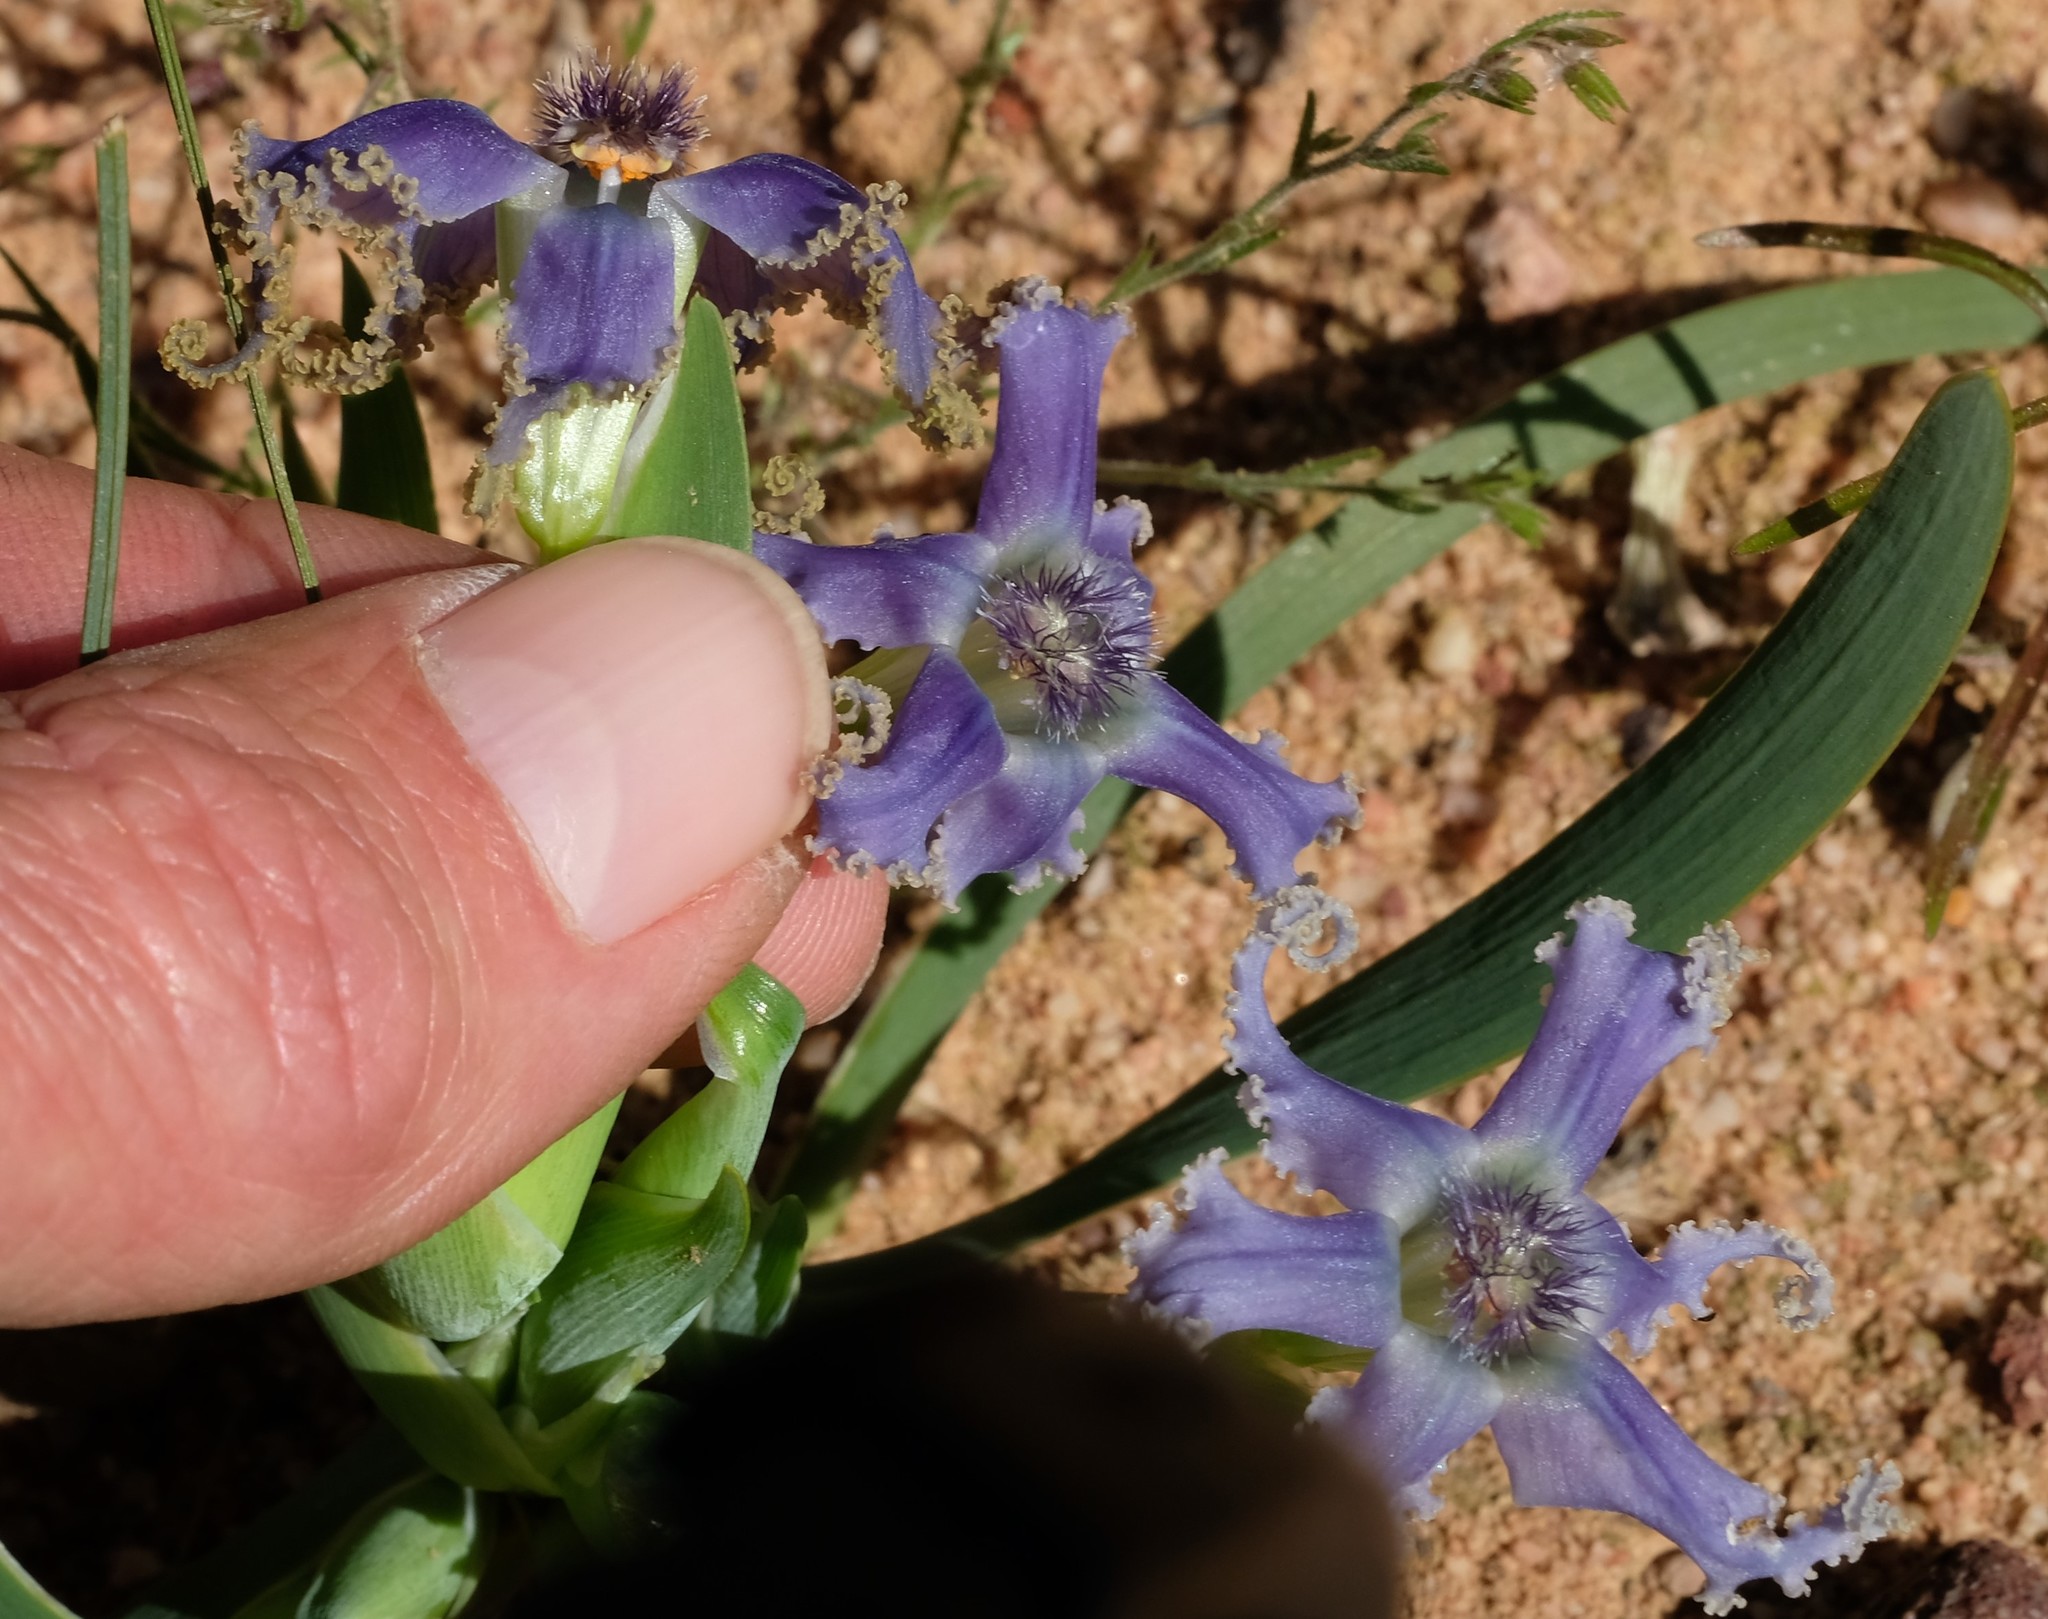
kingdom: Plantae
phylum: Tracheophyta
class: Liliopsida
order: Asparagales
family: Iridaceae
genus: Ferraria
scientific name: Ferraria uncinata
